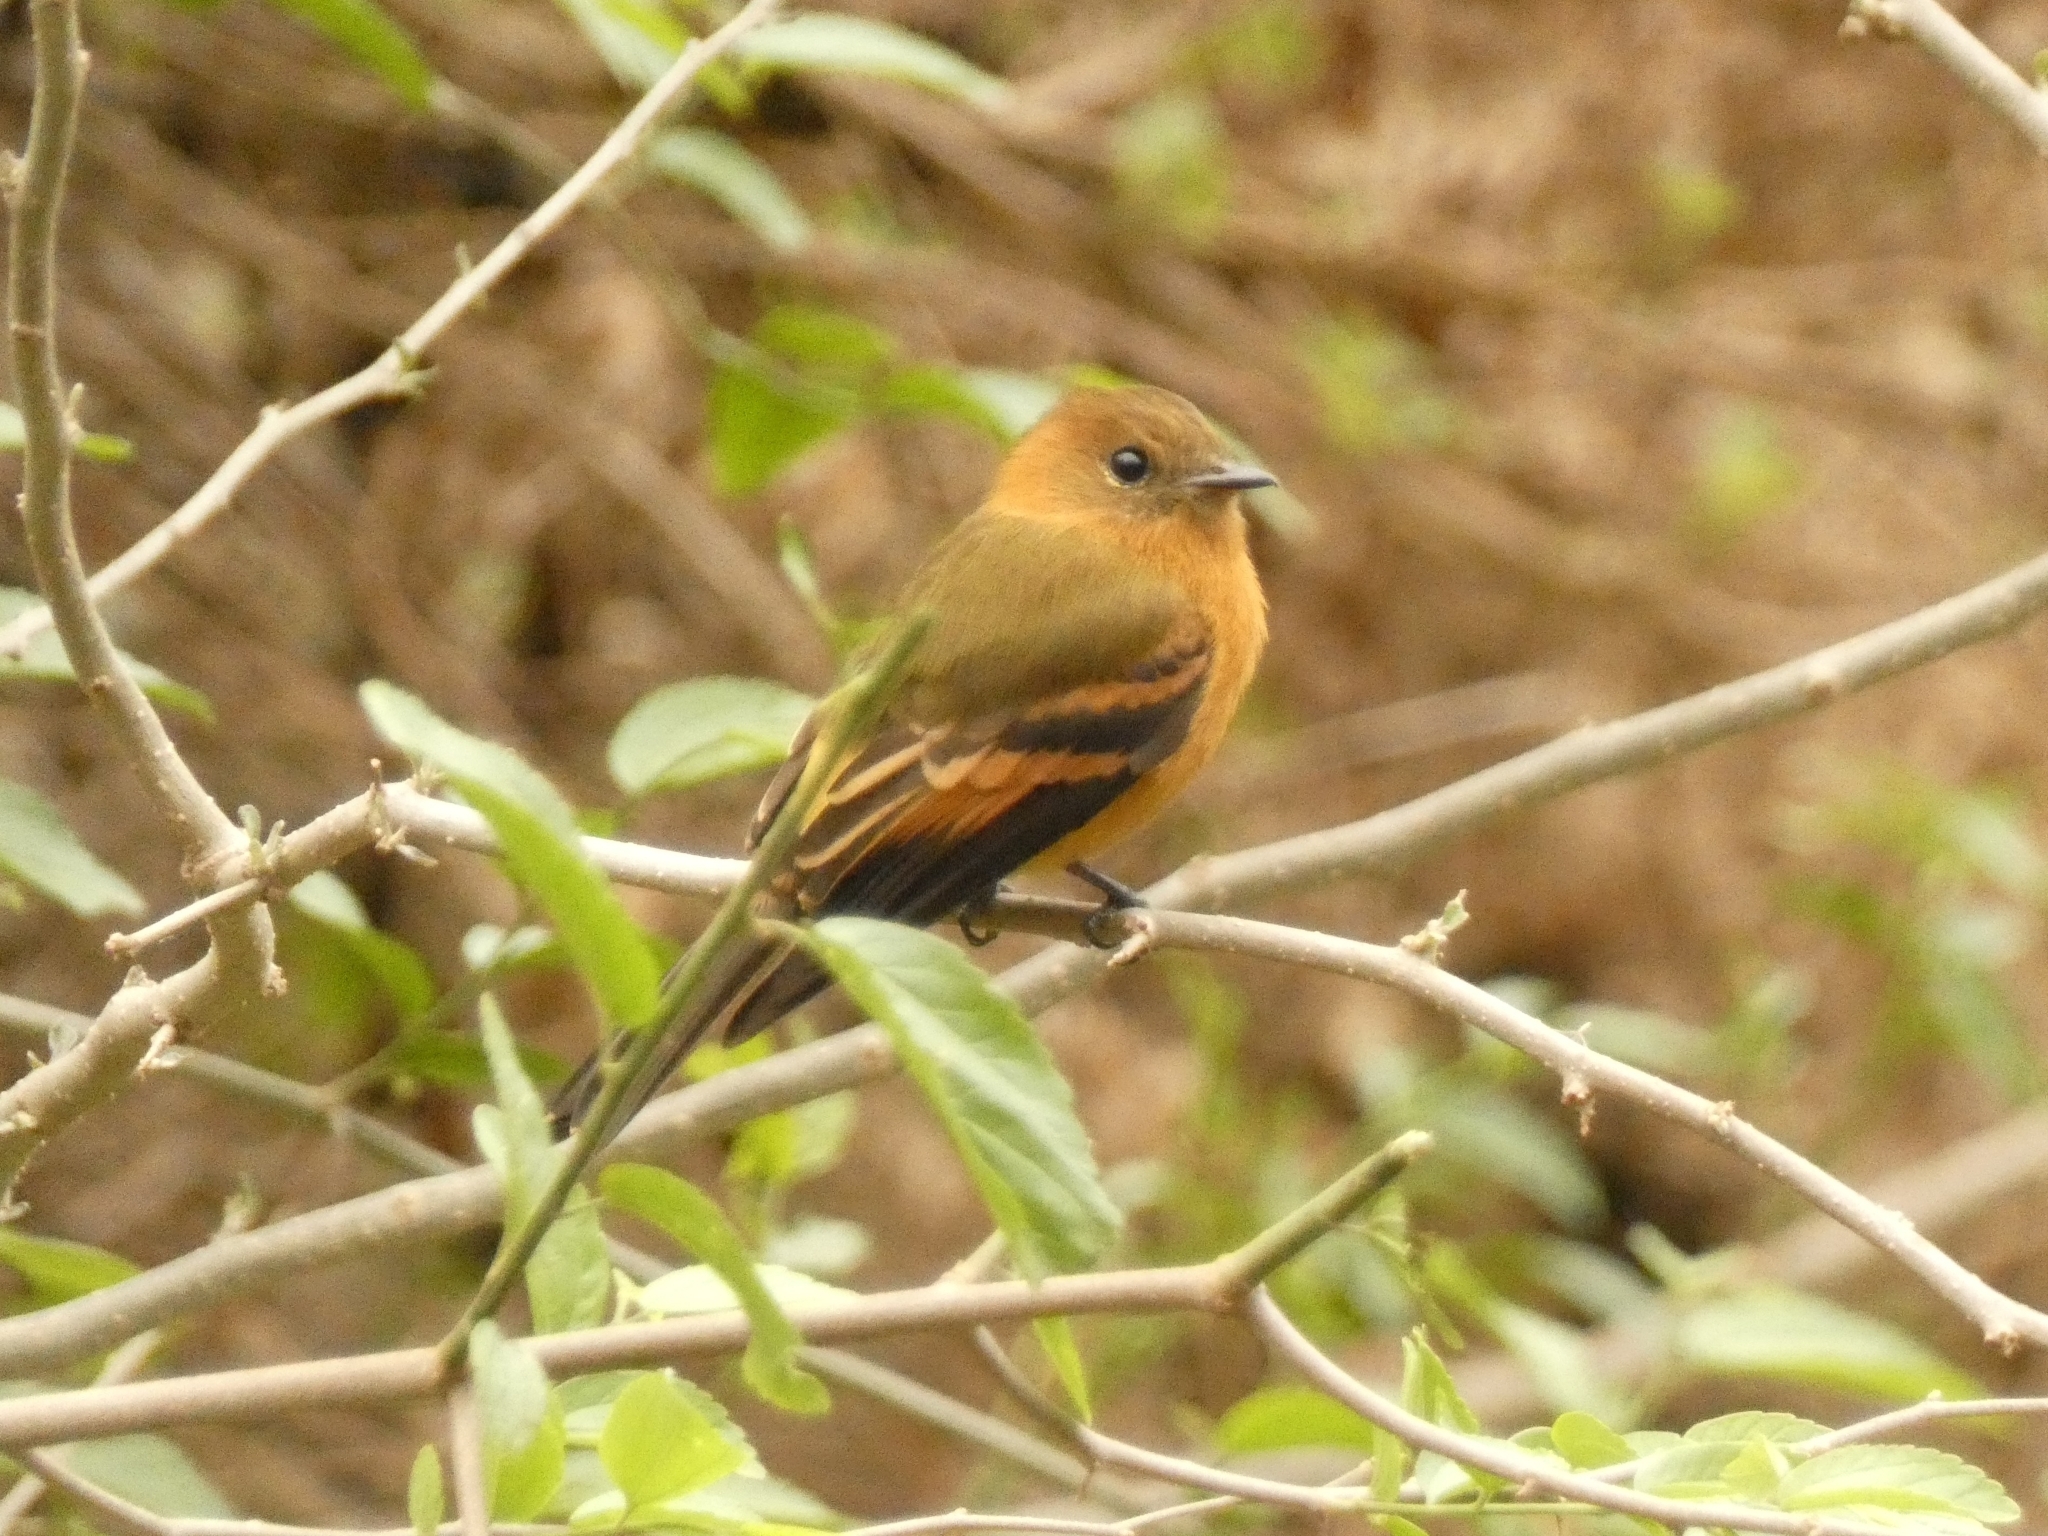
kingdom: Animalia
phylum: Chordata
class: Aves
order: Passeriformes
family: Tyrannidae
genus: Pyrrhomyias
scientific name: Pyrrhomyias cinnamomeus
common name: Cinnamon flycatcher
